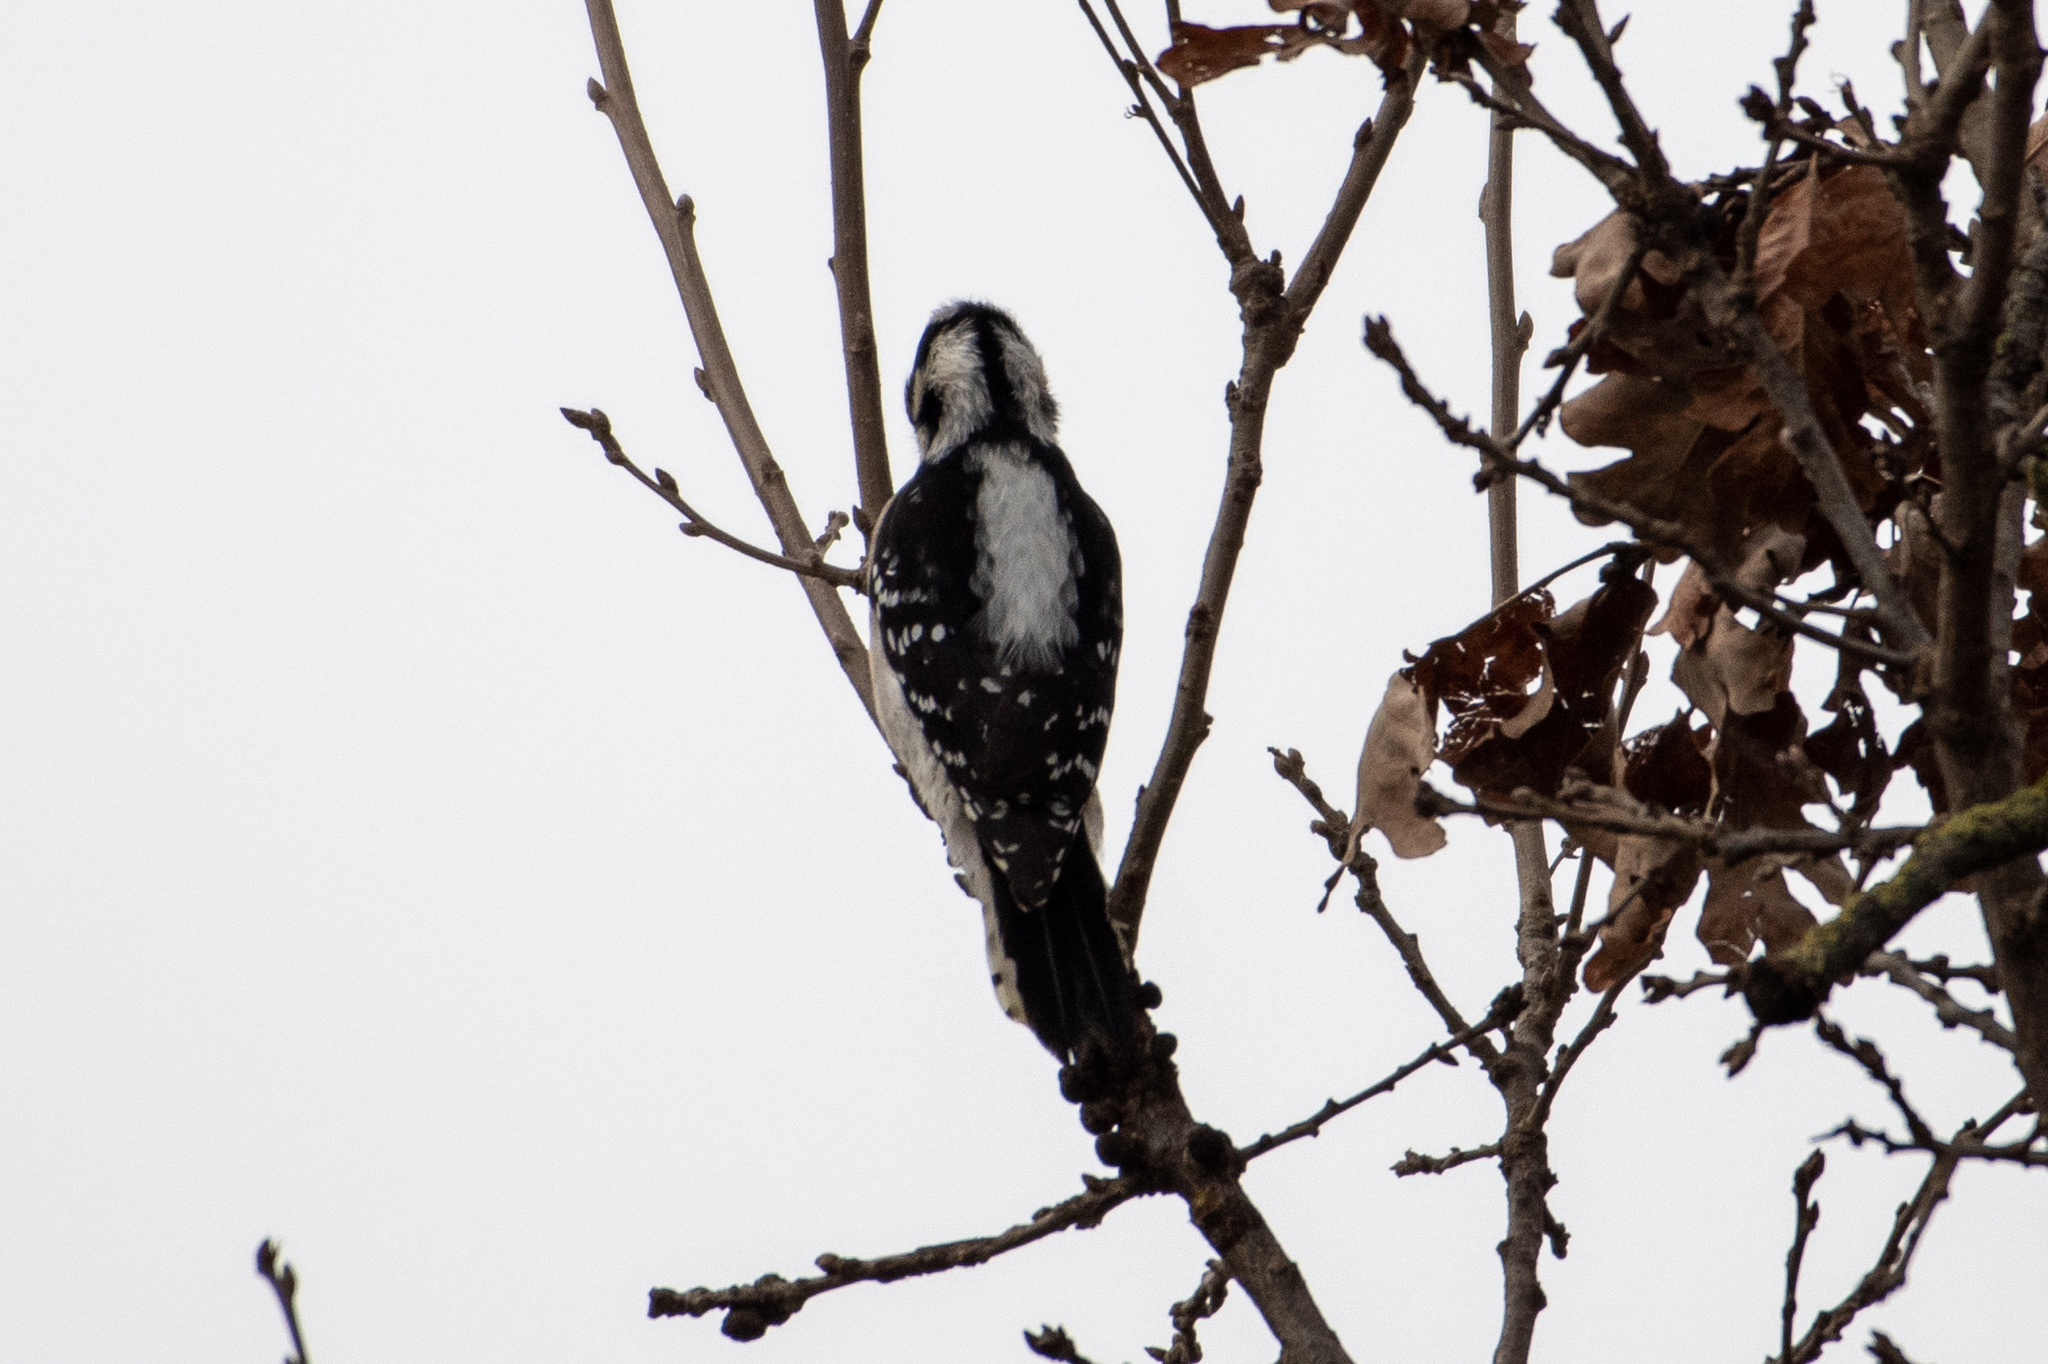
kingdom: Animalia
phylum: Chordata
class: Aves
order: Piciformes
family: Picidae
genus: Dryobates
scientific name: Dryobates pubescens
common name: Downy woodpecker
